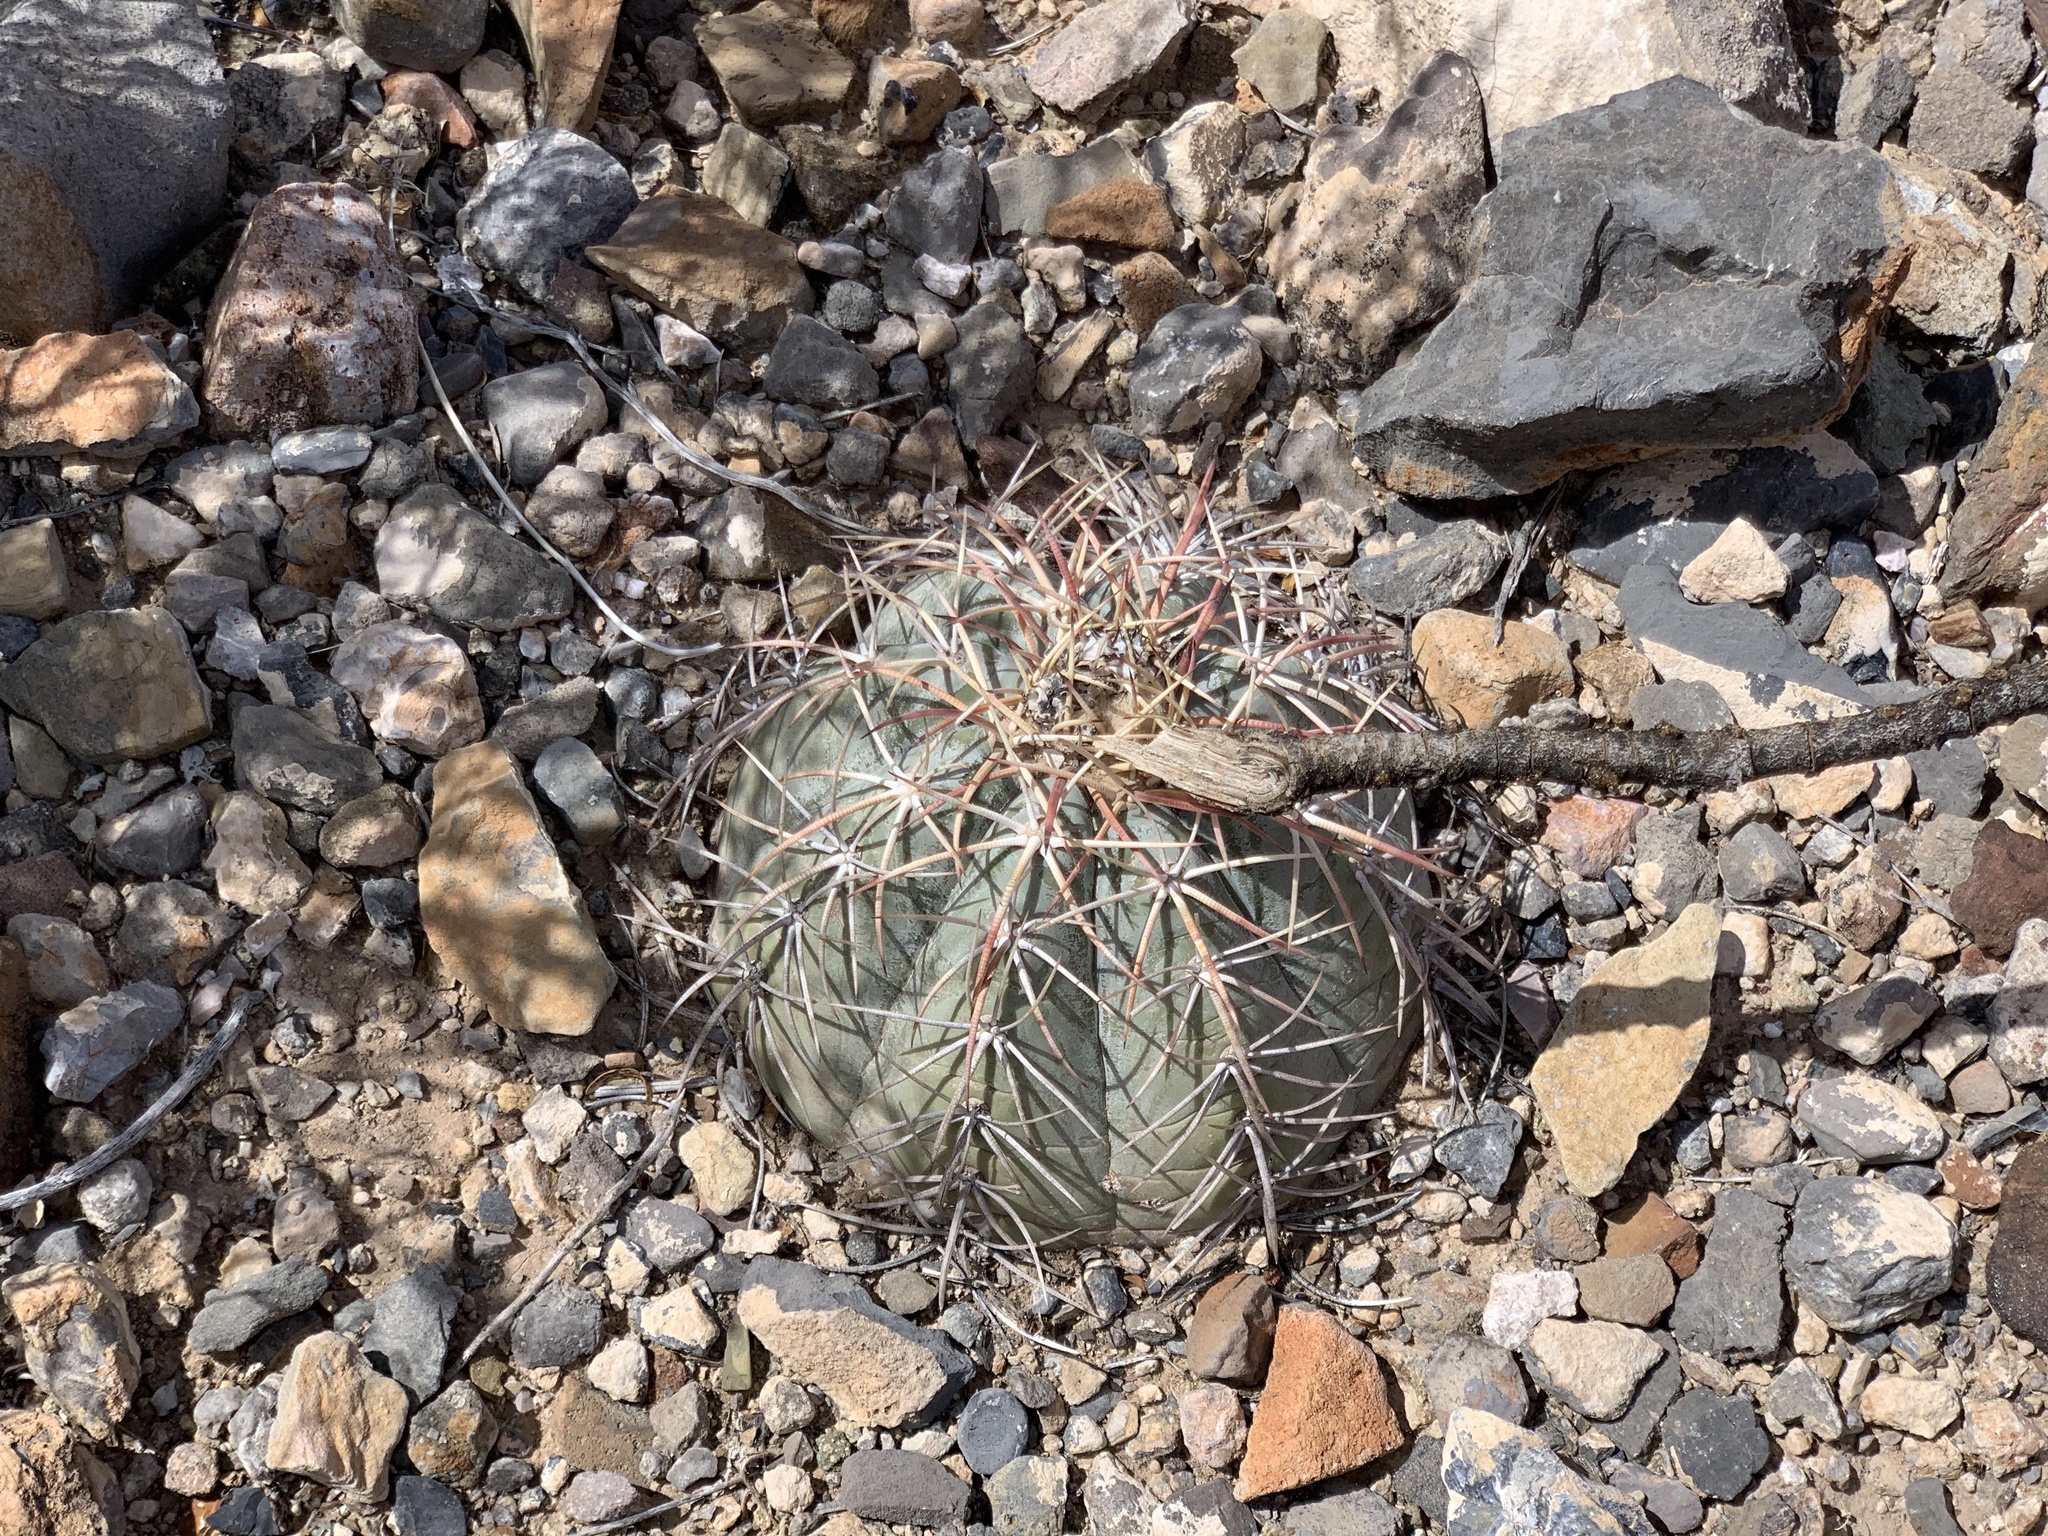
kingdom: Plantae
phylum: Tracheophyta
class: Magnoliopsida
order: Caryophyllales
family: Cactaceae
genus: Echinocactus
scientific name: Echinocactus horizonthalonius
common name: Devilshead
